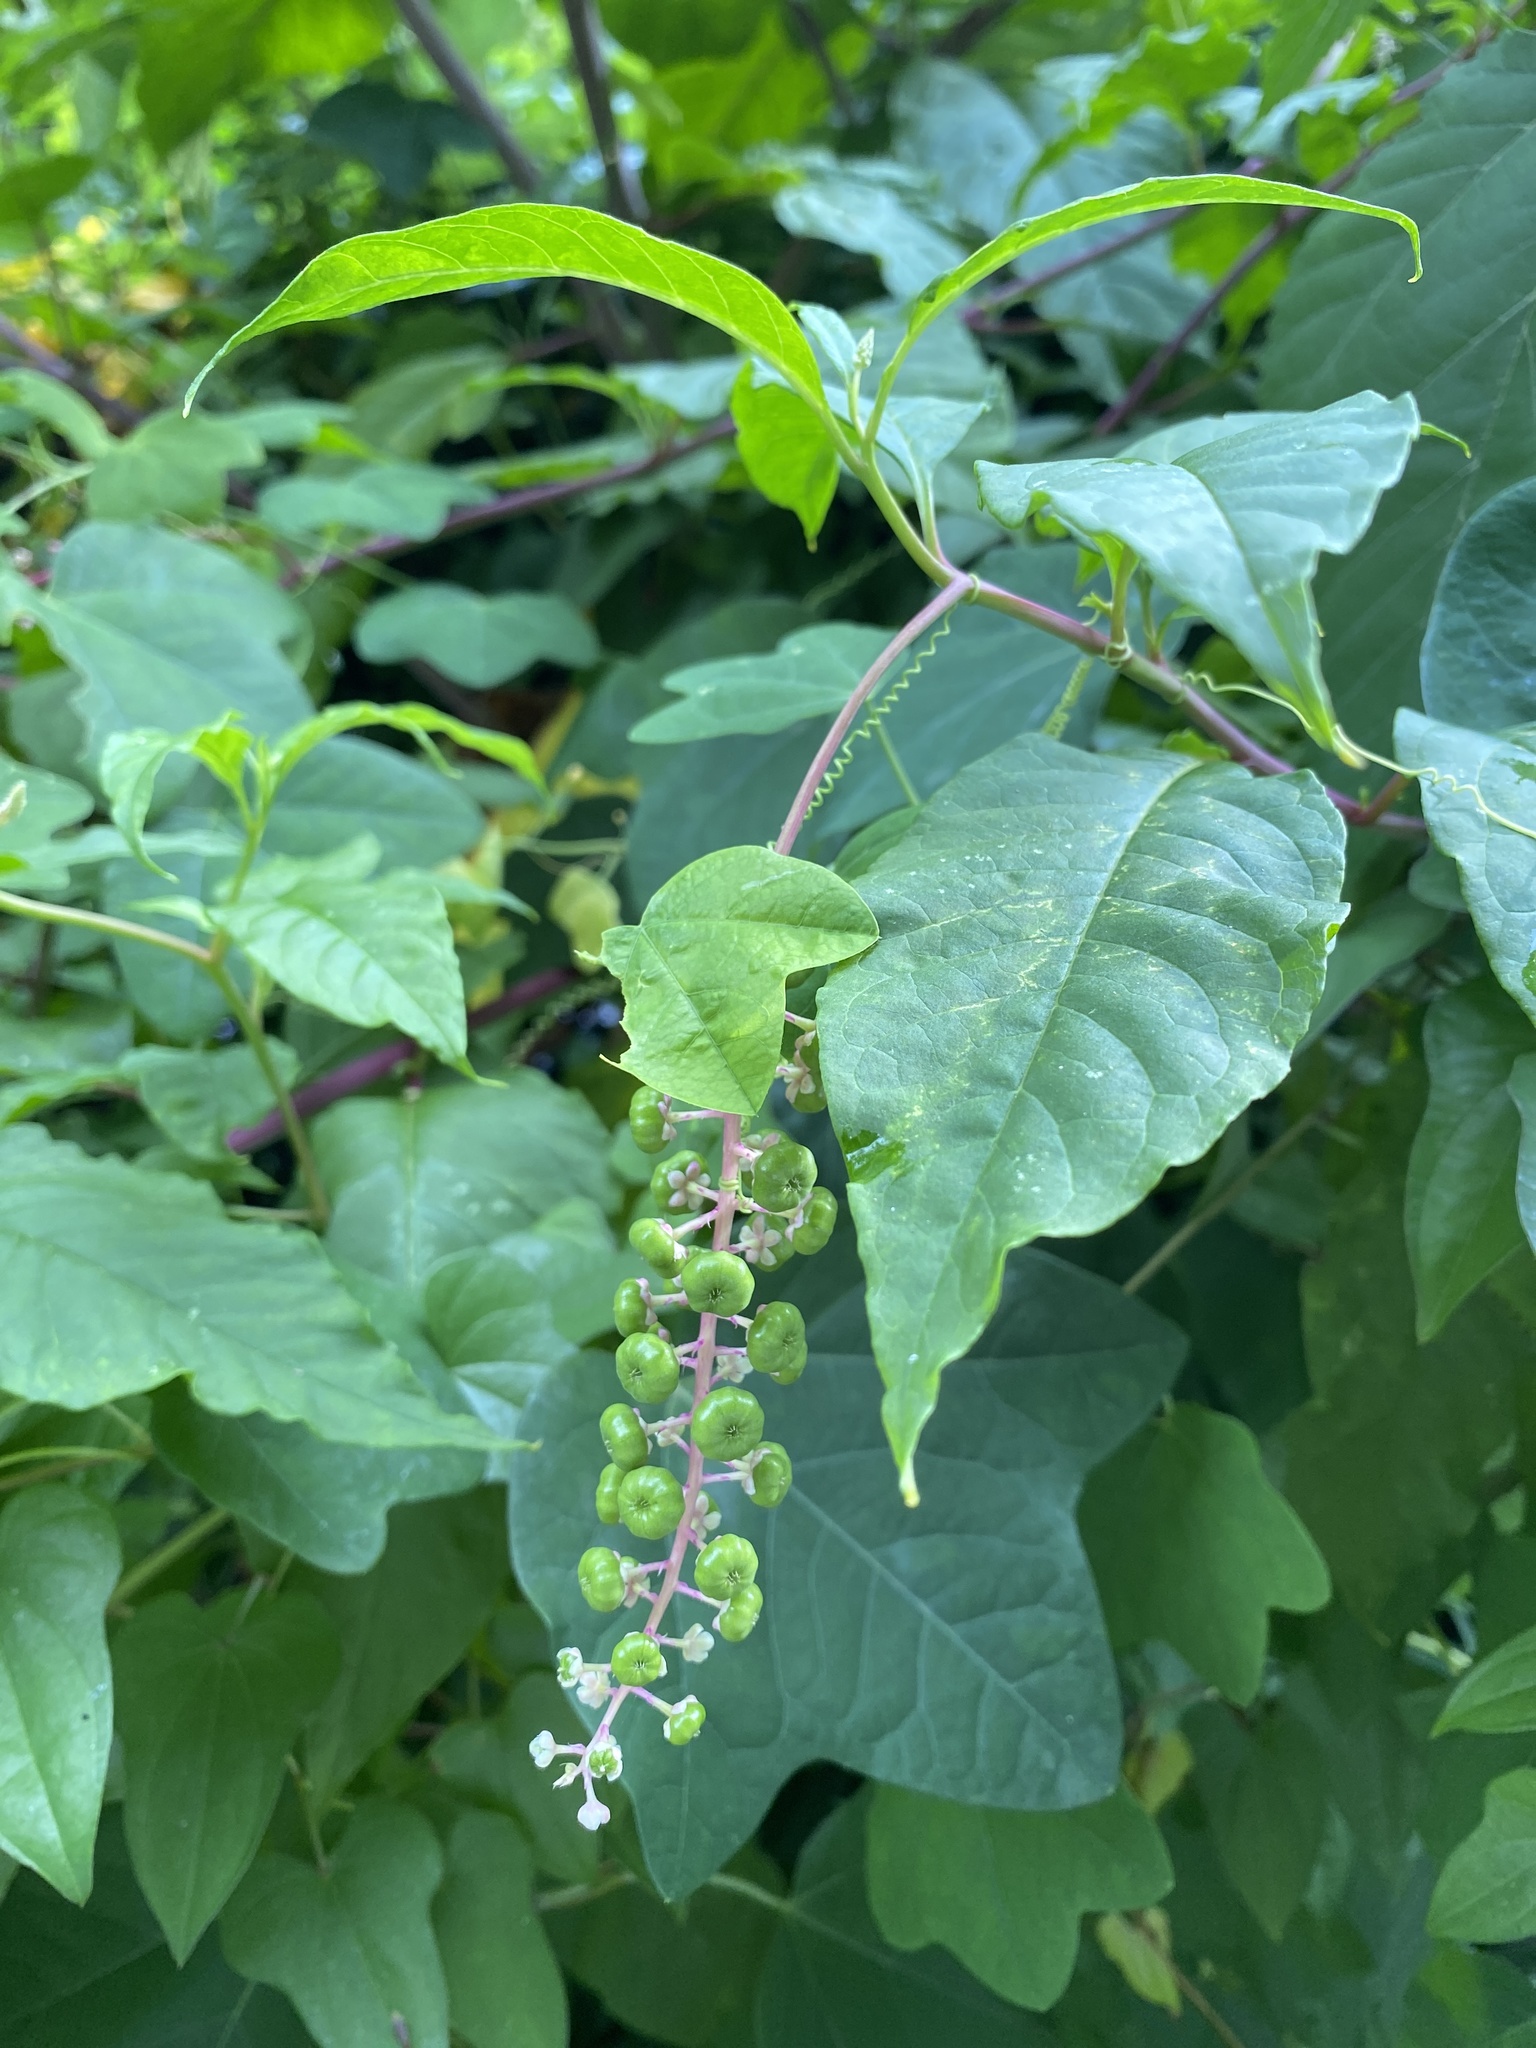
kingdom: Plantae
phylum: Tracheophyta
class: Magnoliopsida
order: Caryophyllales
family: Phytolaccaceae
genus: Phytolacca
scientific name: Phytolacca americana
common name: American pokeweed
